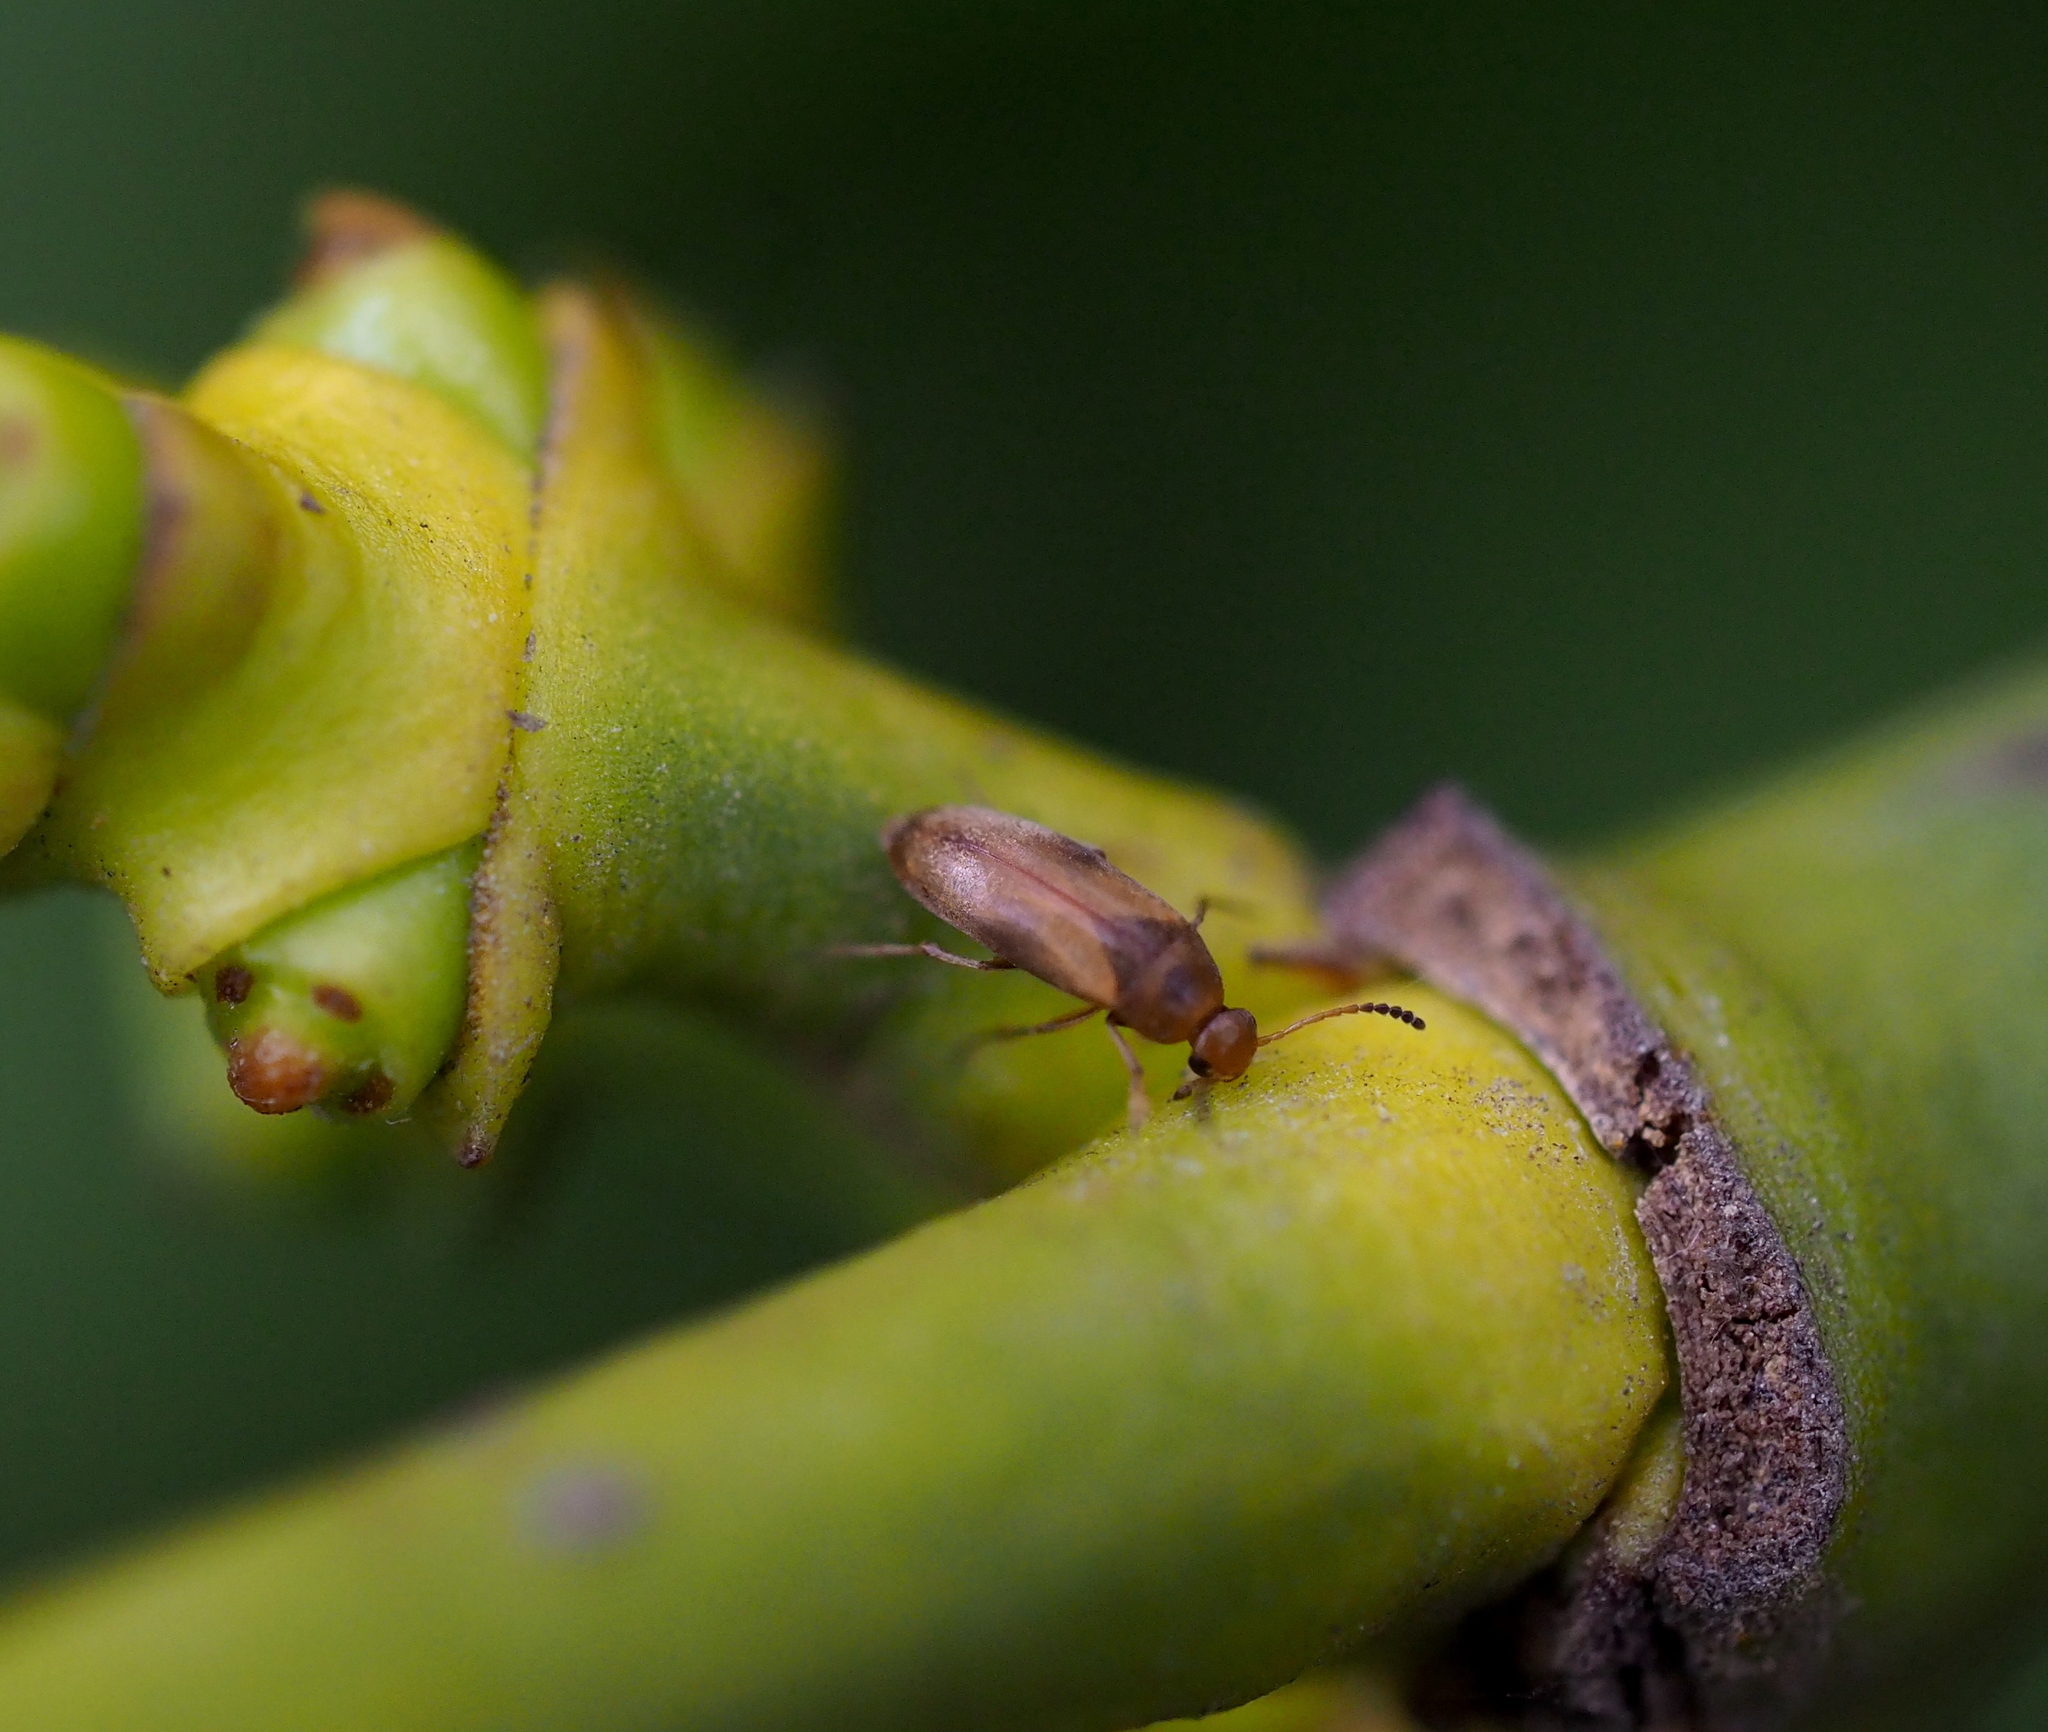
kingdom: Animalia
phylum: Arthropoda
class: Insecta
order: Coleoptera
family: Scraptiidae
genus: Anaspis
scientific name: Anaspis maculata
